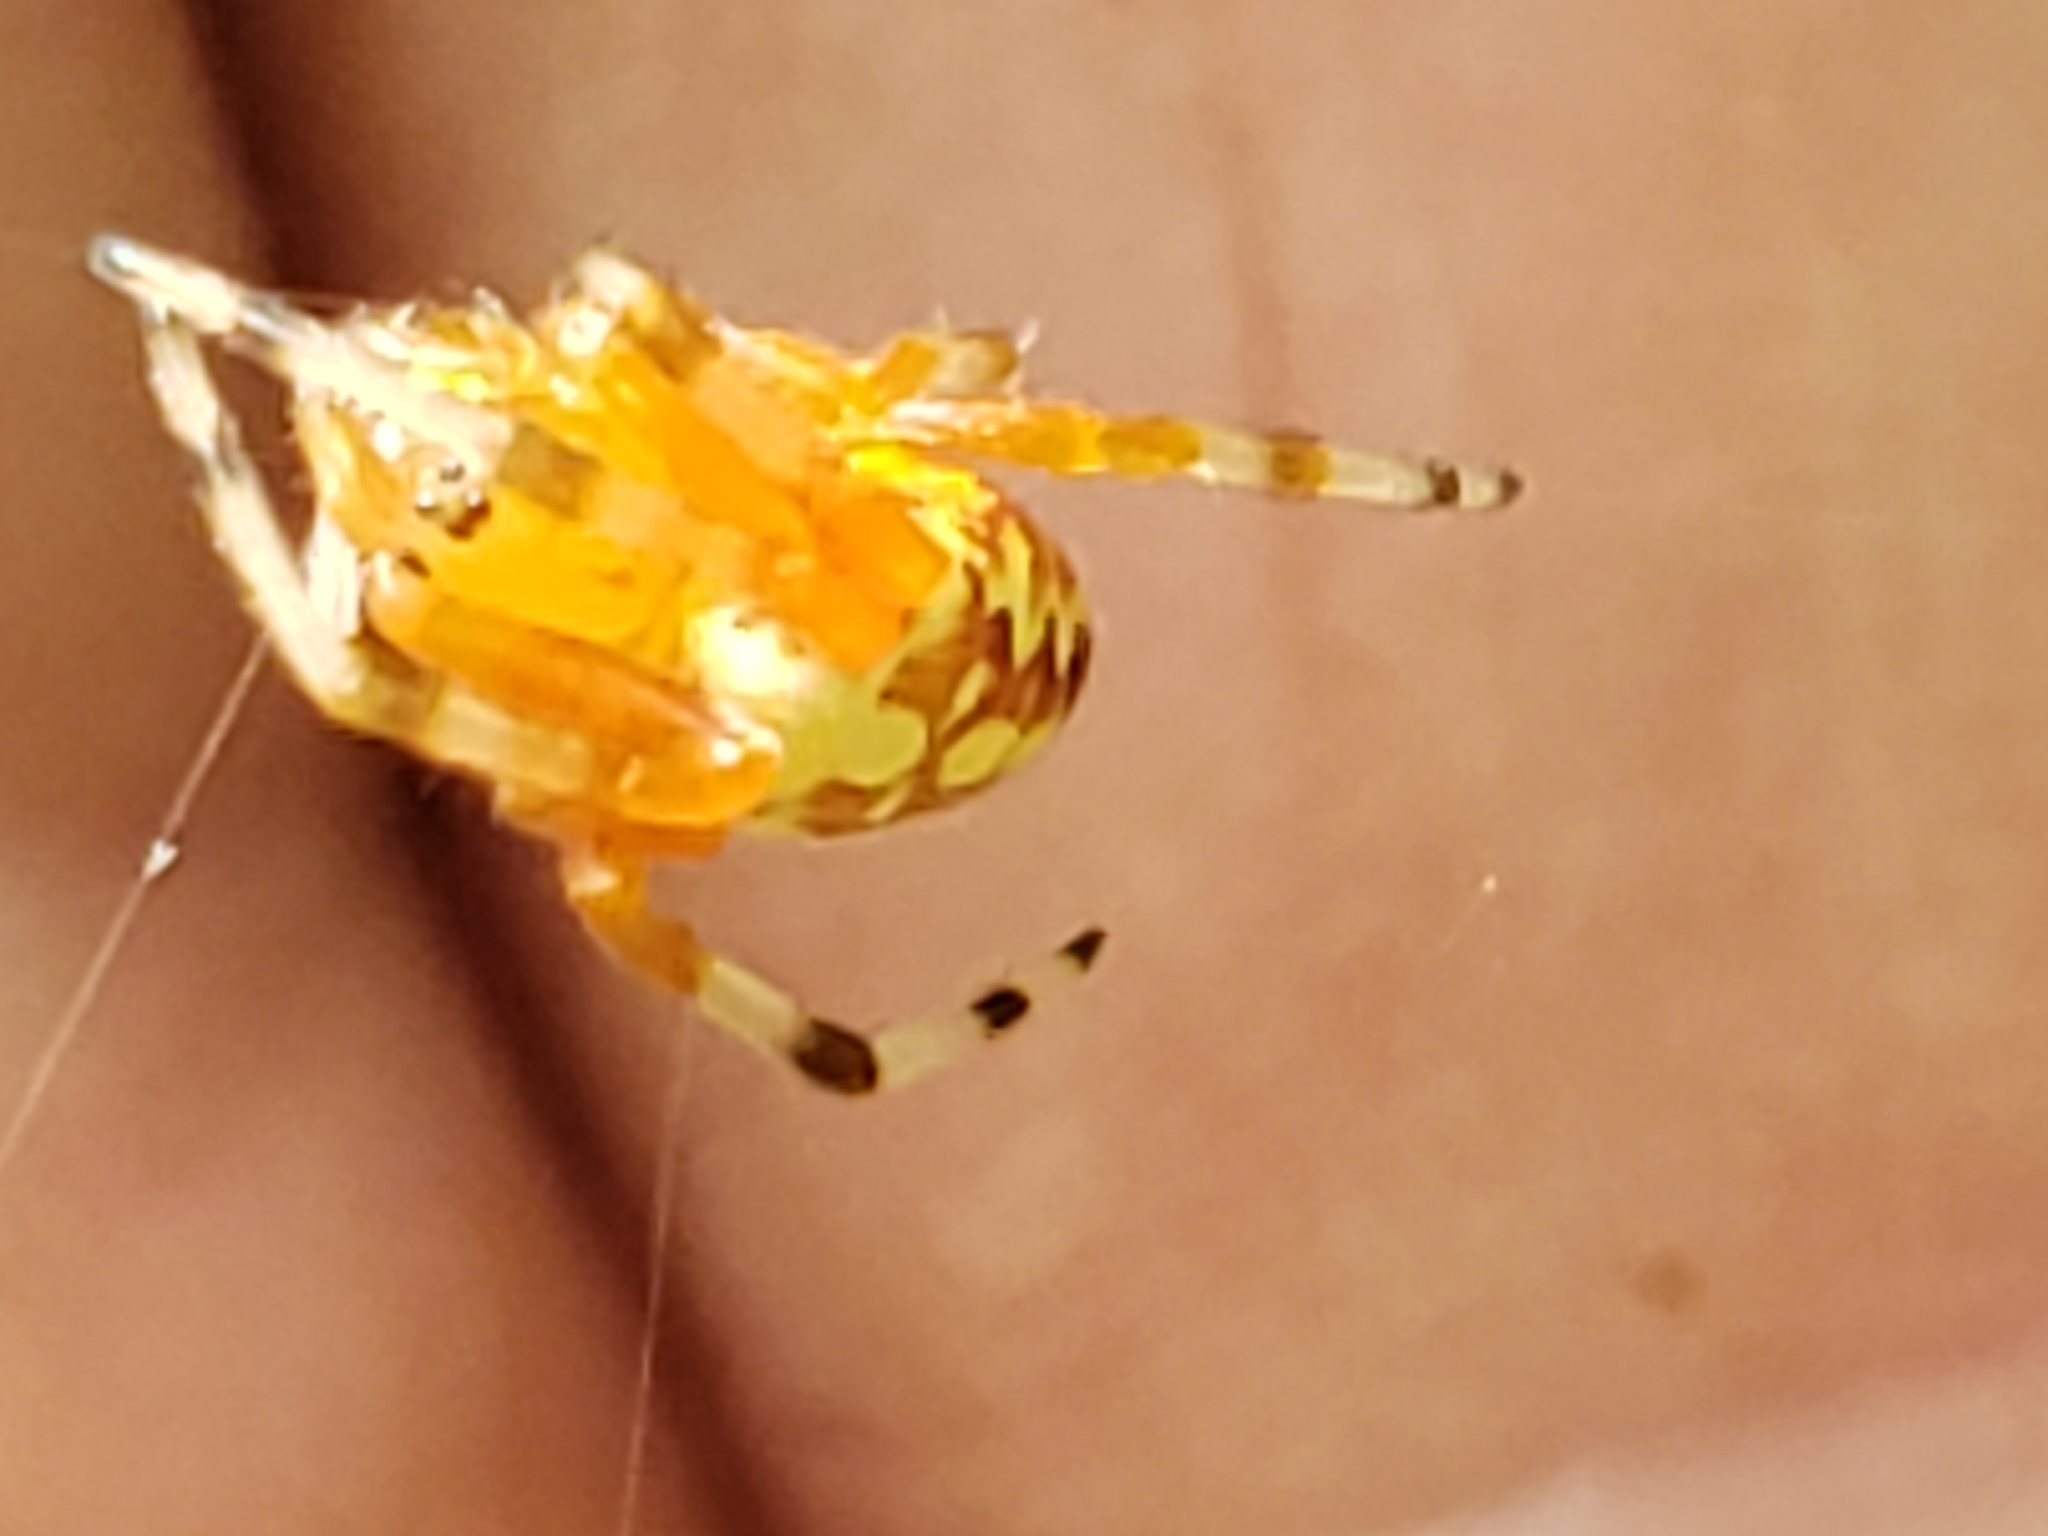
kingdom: Animalia
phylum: Arthropoda
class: Arachnida
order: Araneae
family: Araneidae
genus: Araneus
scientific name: Araneus marmoreus
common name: Marbled orbweaver
